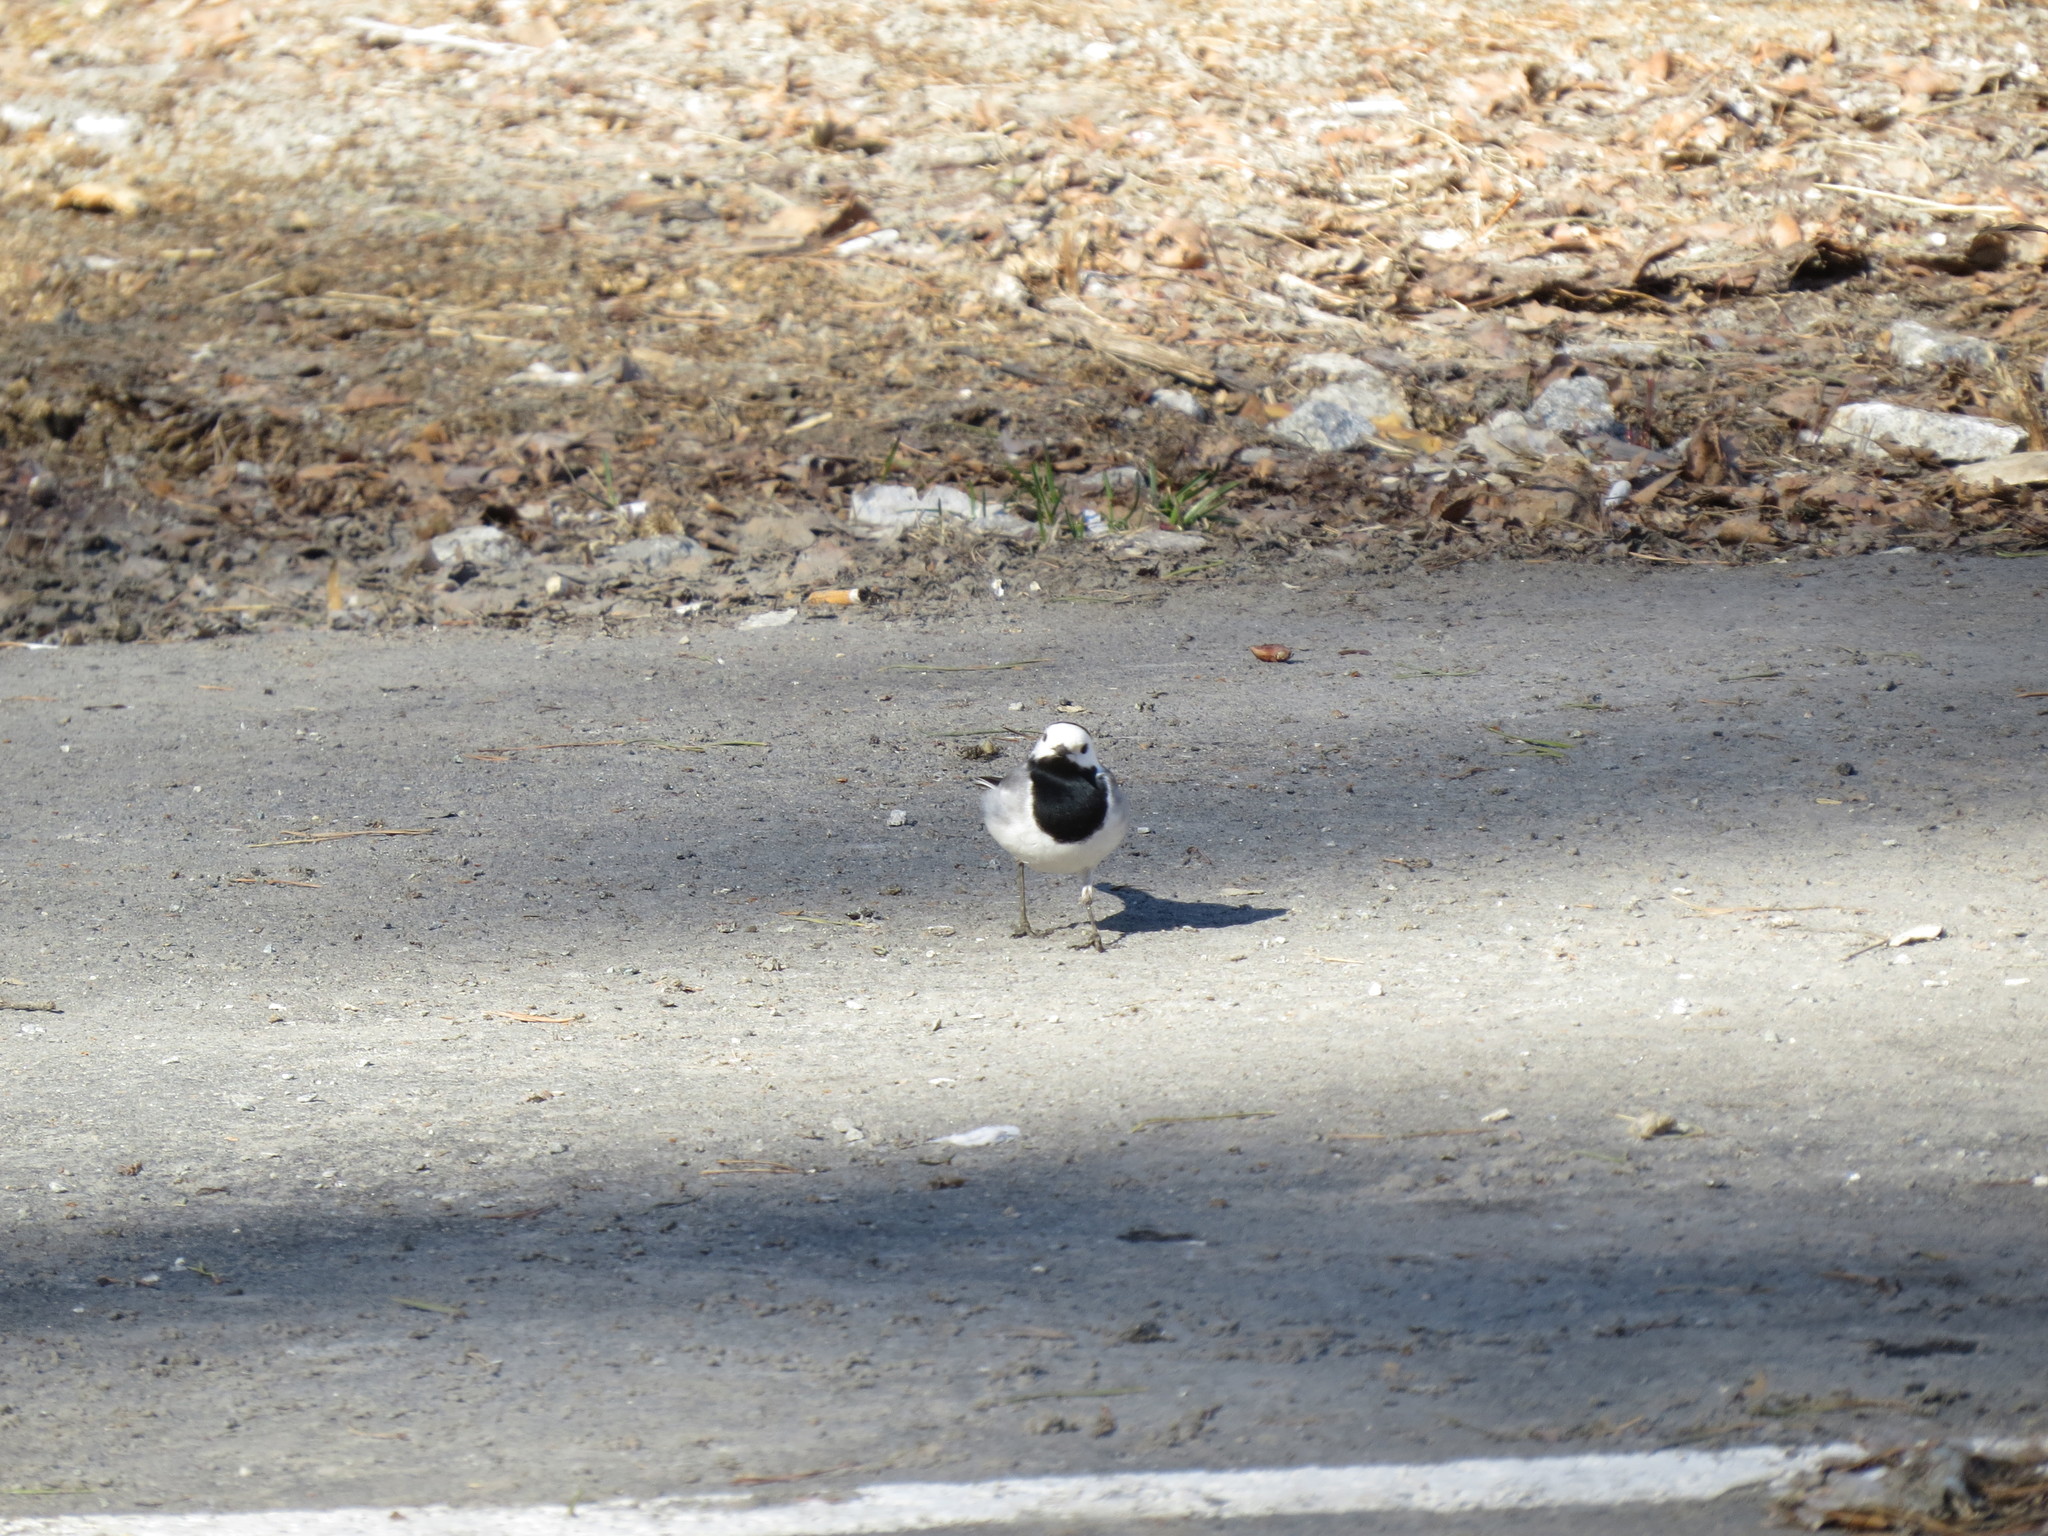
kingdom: Animalia
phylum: Chordata
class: Aves
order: Passeriformes
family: Motacillidae
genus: Motacilla
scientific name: Motacilla alba
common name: White wagtail
